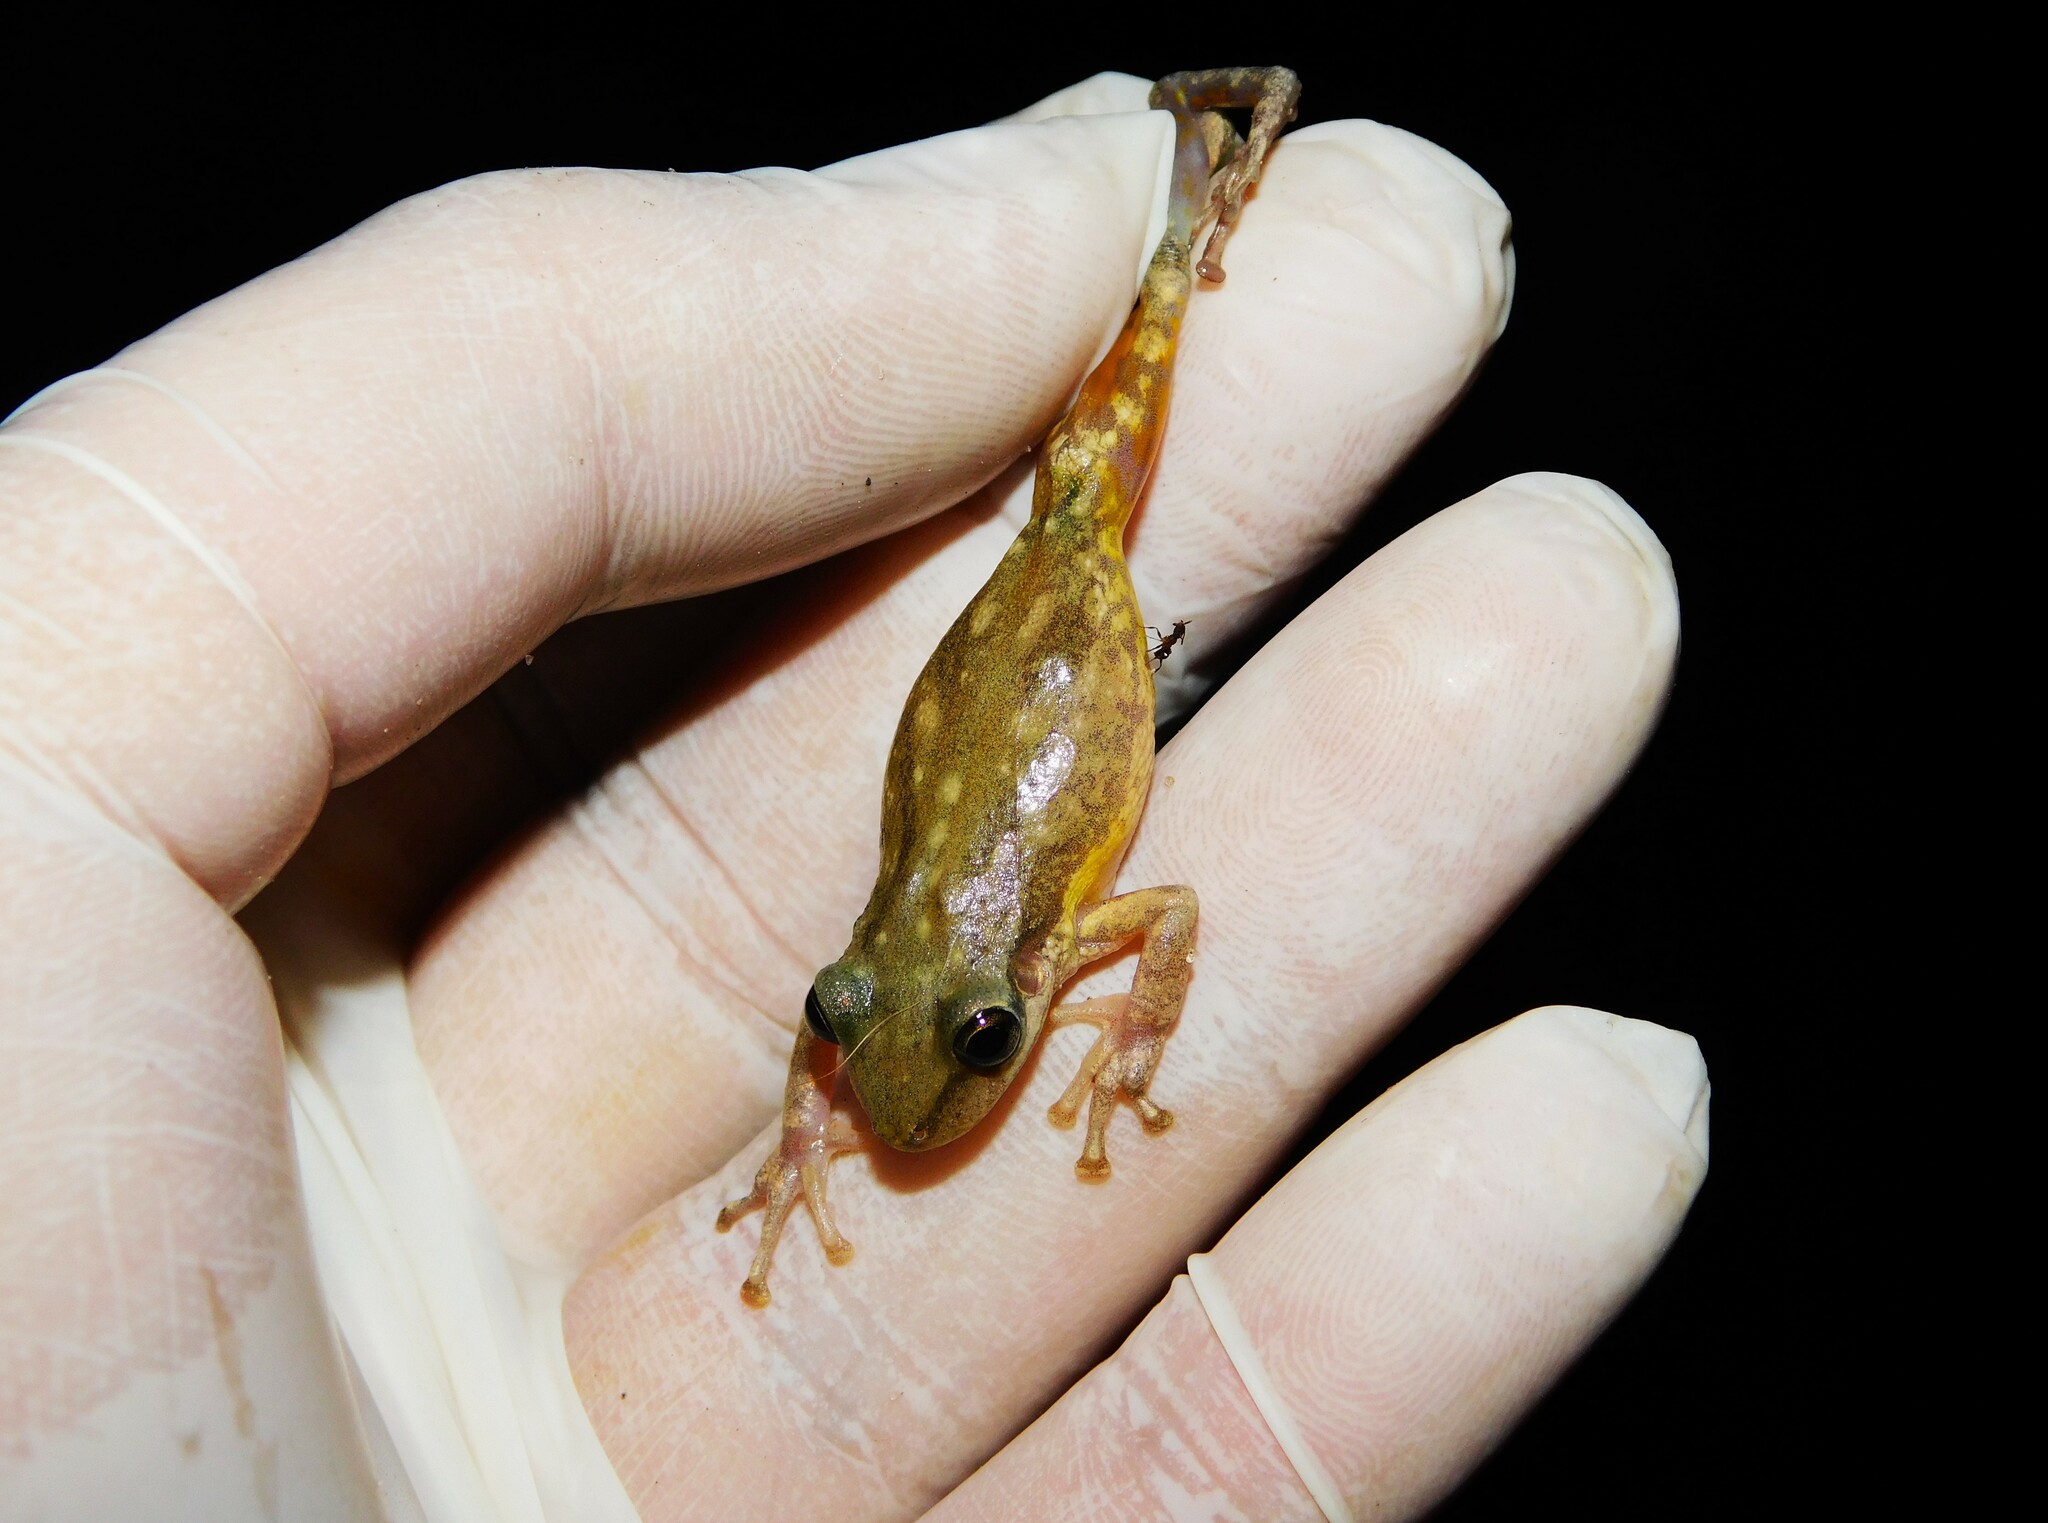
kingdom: Animalia
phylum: Chordata
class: Amphibia
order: Anura
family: Hylidae
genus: Scinax
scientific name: Scinax nasicus
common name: Lesser snouted treefrog
